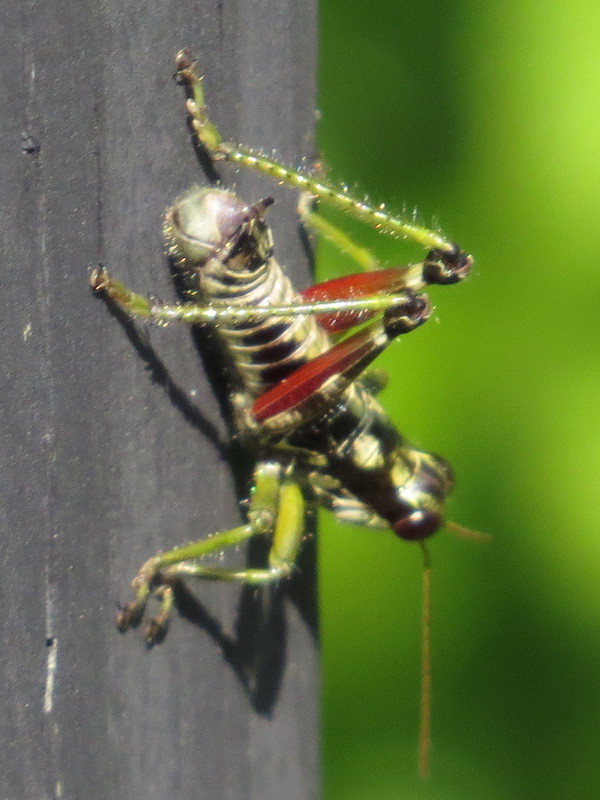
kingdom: Animalia
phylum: Arthropoda
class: Insecta
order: Orthoptera
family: Acrididae
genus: Booneacris
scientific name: Booneacris glacialis
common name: Wingless mountain grasshopper
